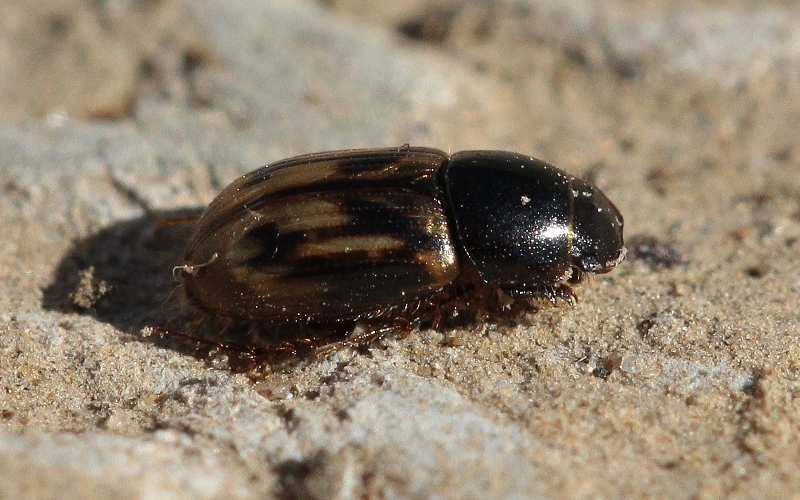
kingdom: Animalia
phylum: Arthropoda
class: Insecta
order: Coleoptera
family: Scarabaeidae
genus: Chilothorax
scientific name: Chilothorax distinctus
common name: Maculated dung beetle
